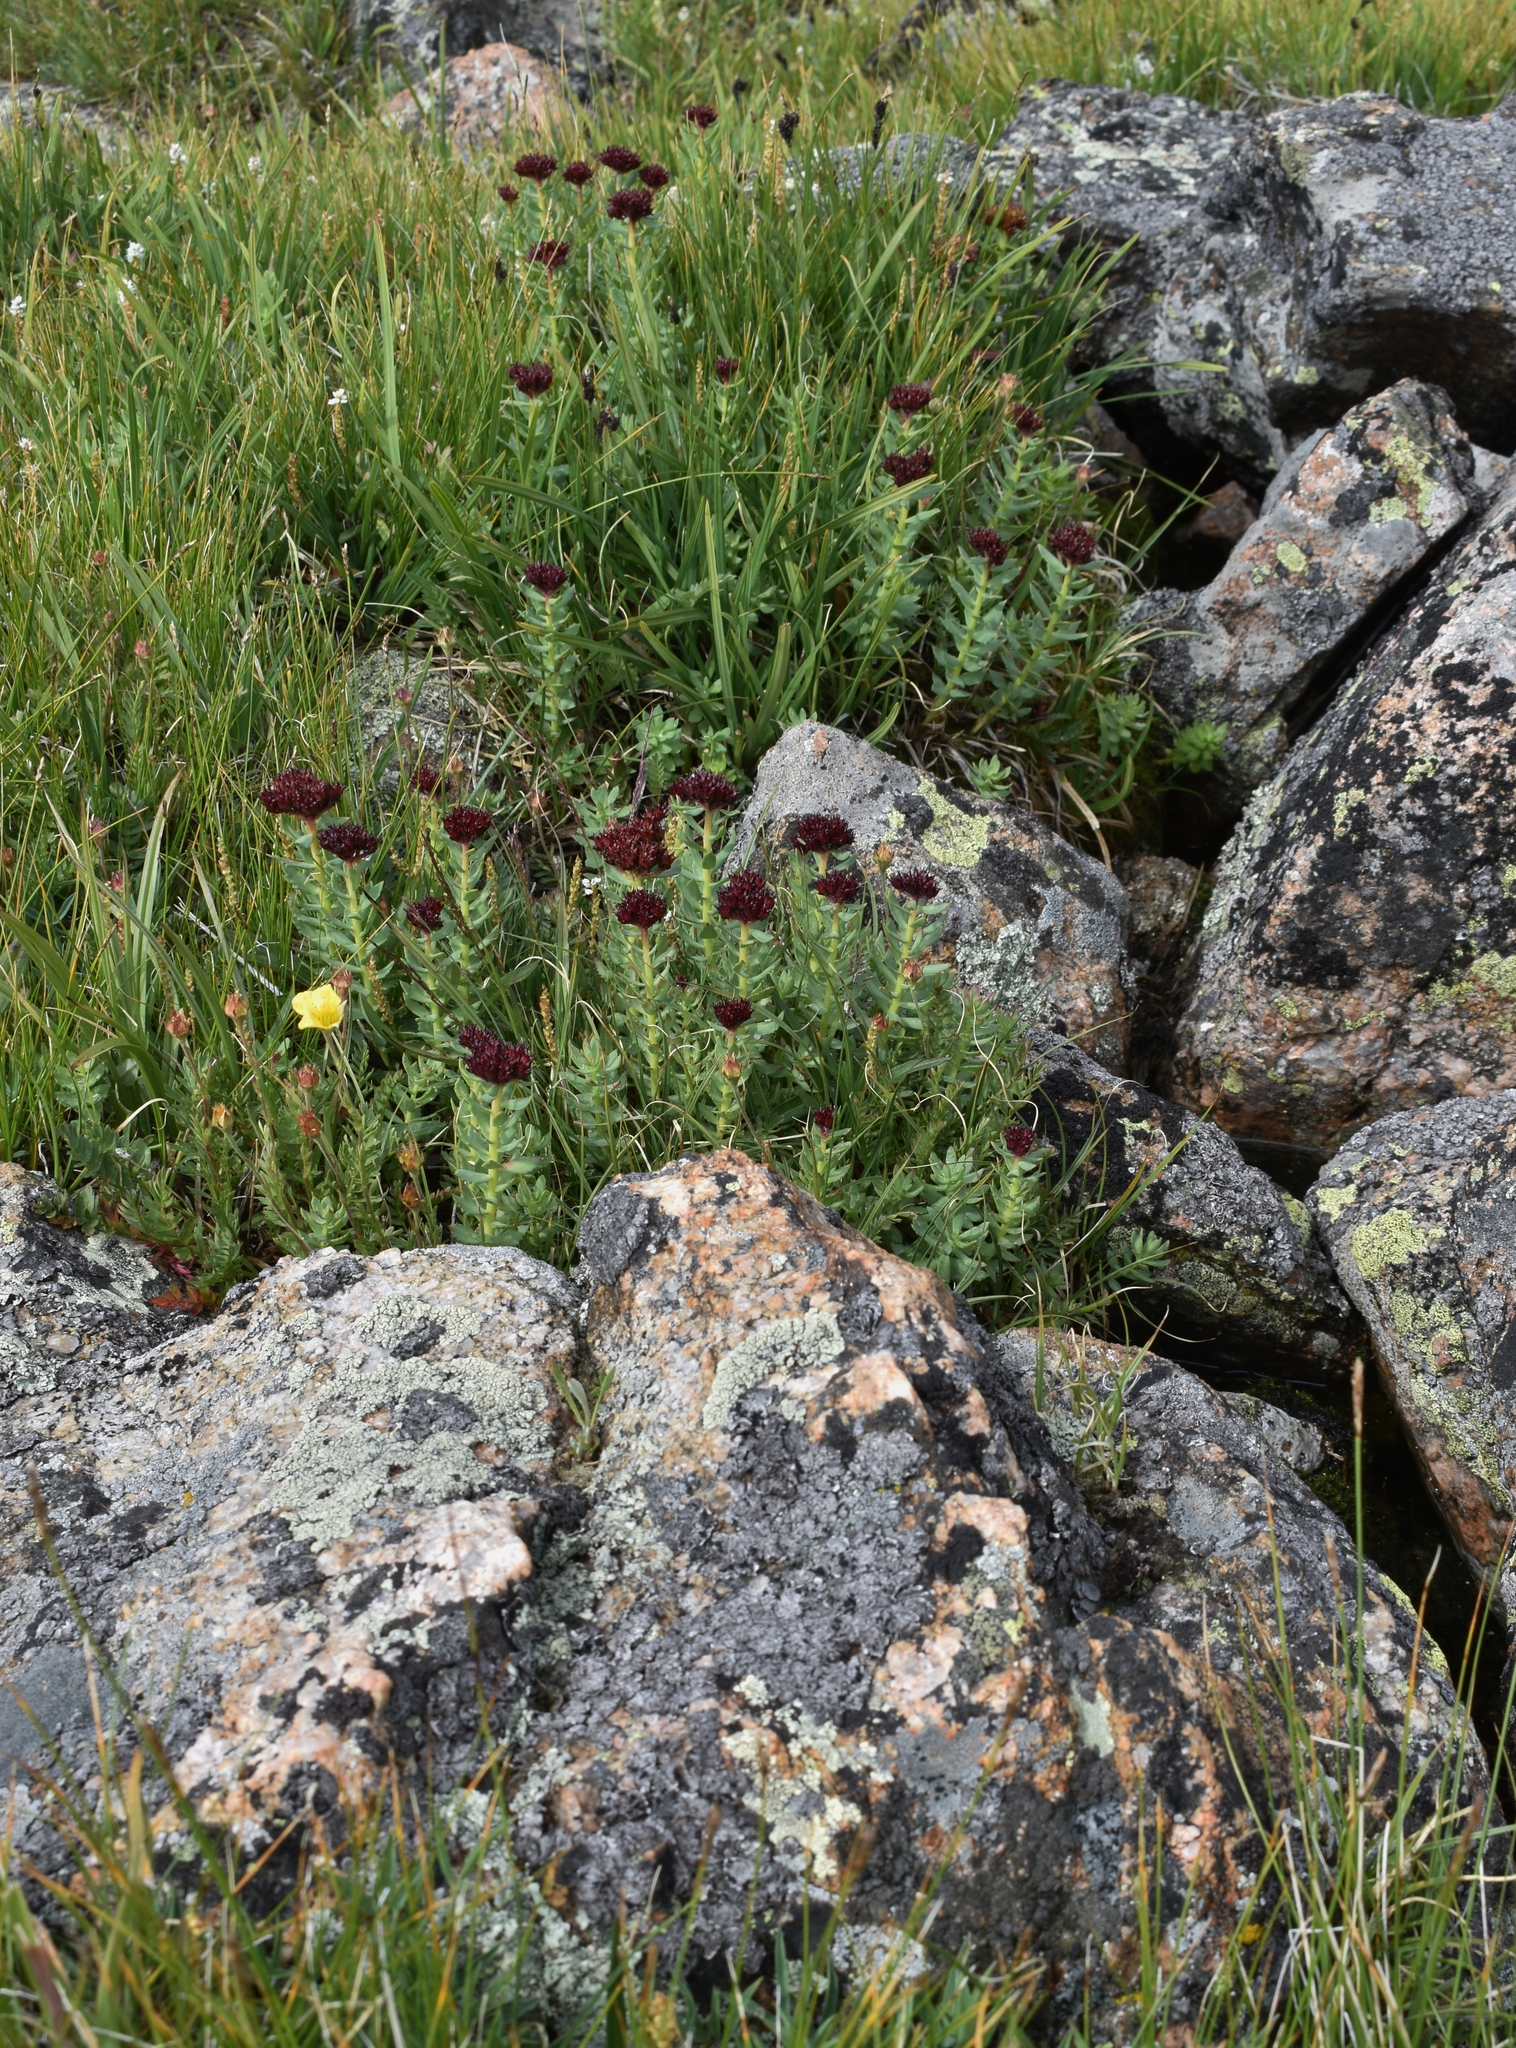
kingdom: Plantae
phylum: Tracheophyta
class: Magnoliopsida
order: Saxifragales
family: Crassulaceae
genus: Rhodiola
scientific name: Rhodiola integrifolia
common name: Western roseroot
